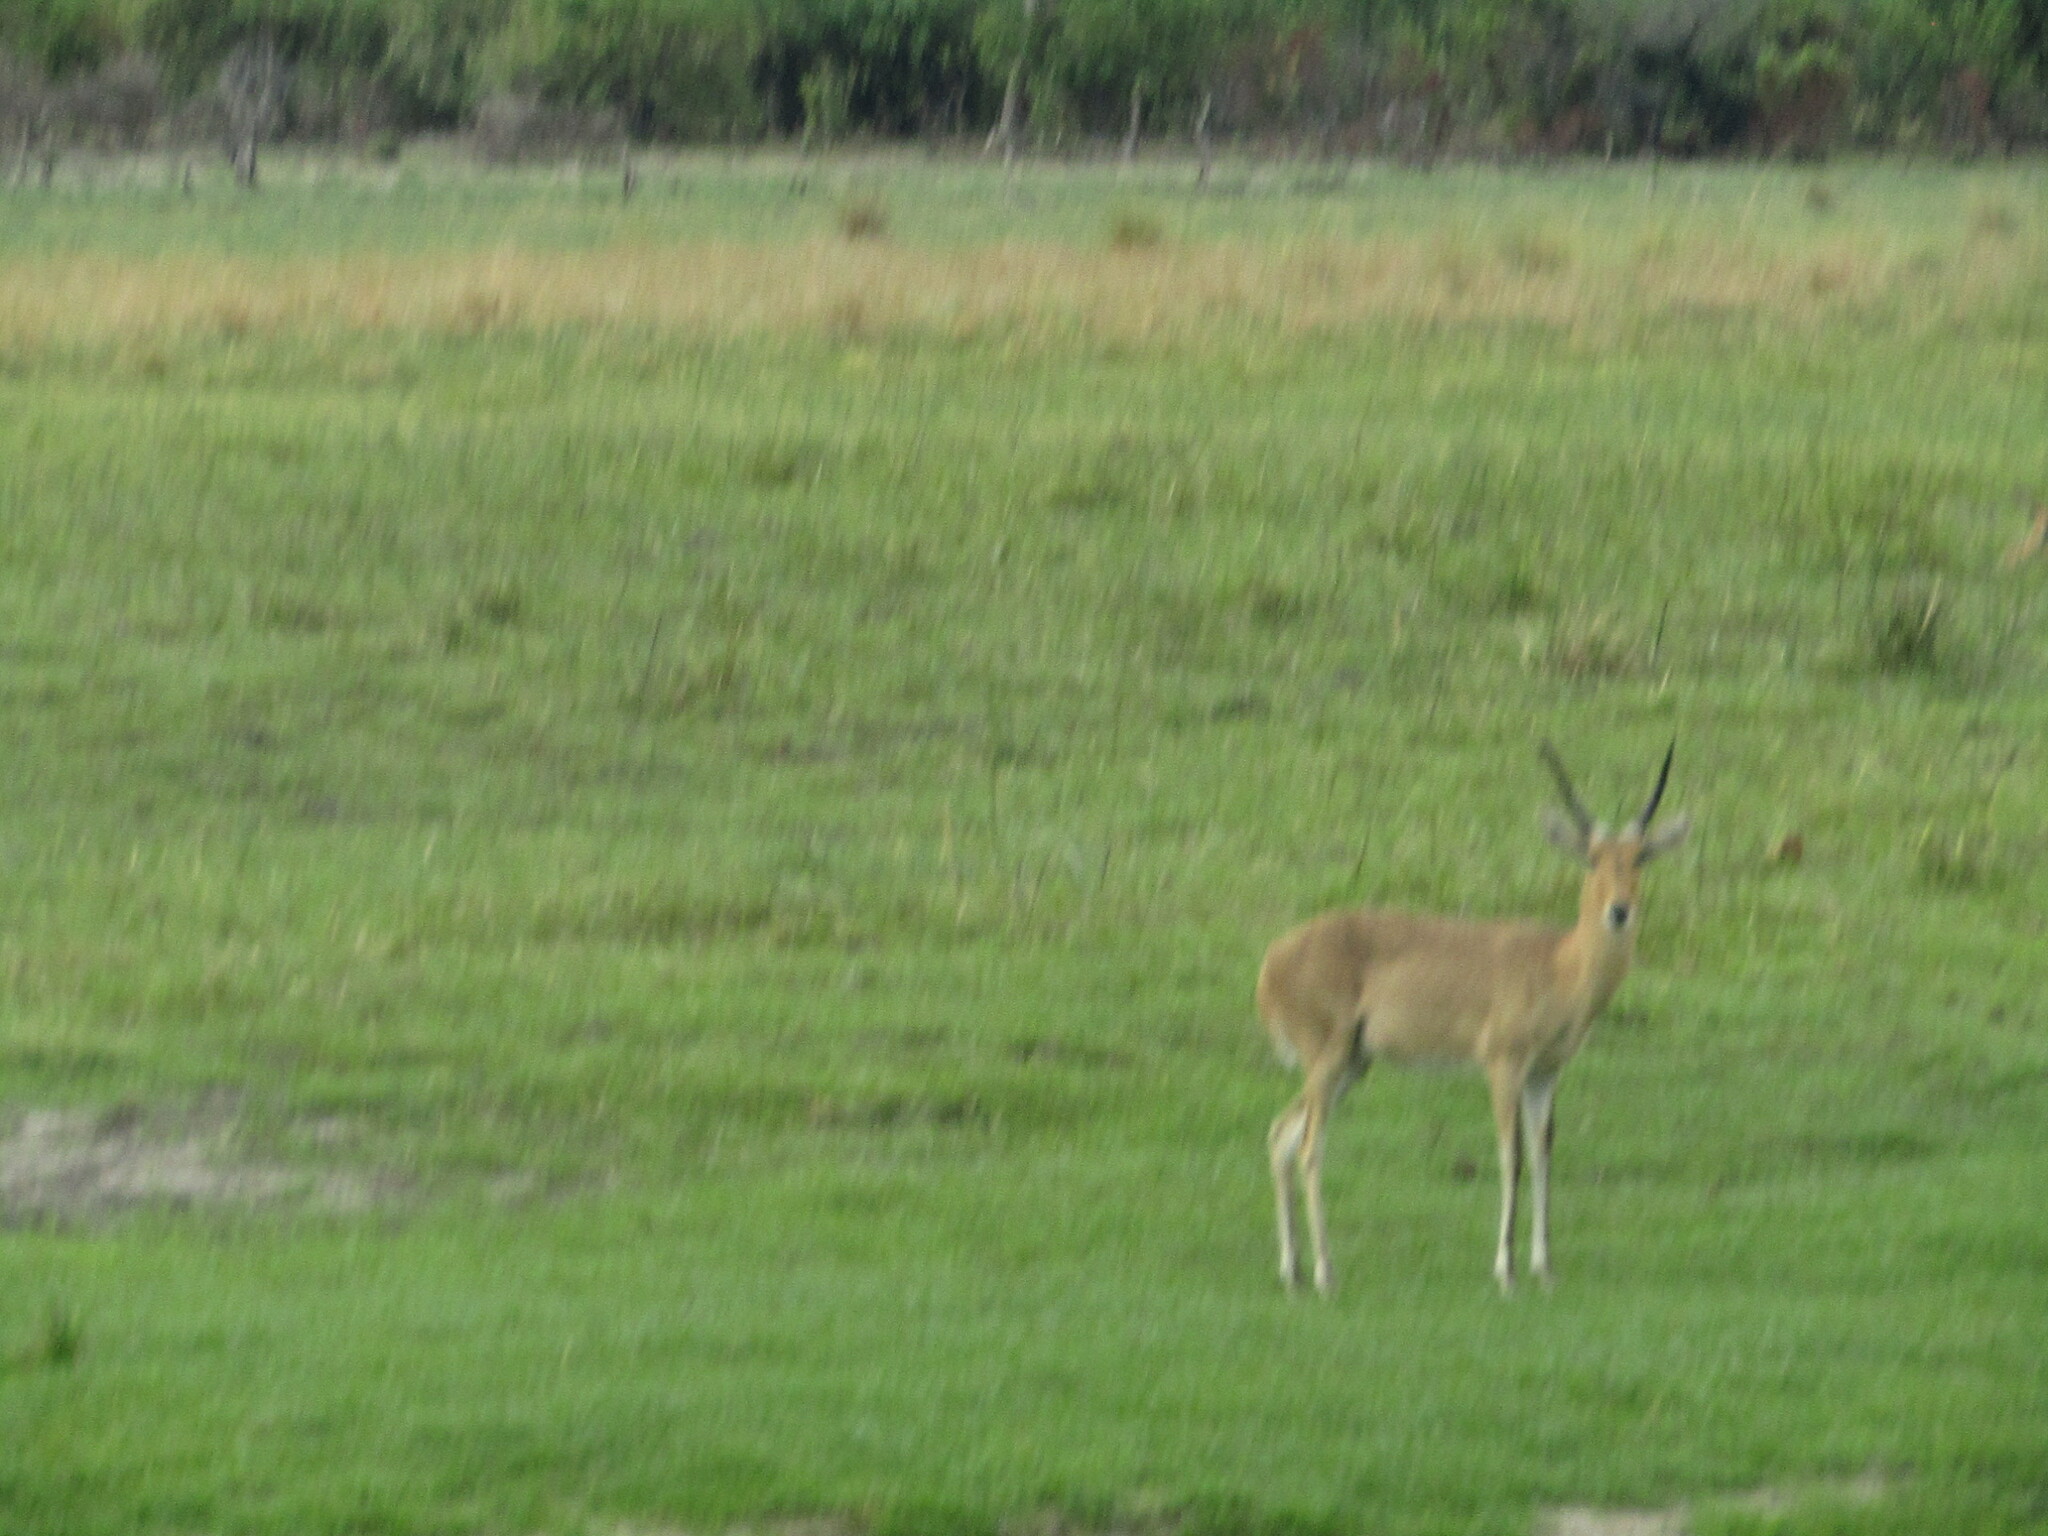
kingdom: Animalia
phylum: Chordata
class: Mammalia
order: Artiodactyla
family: Bovidae
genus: Redunca
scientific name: Redunca arundinum
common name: Southern reedbuck
